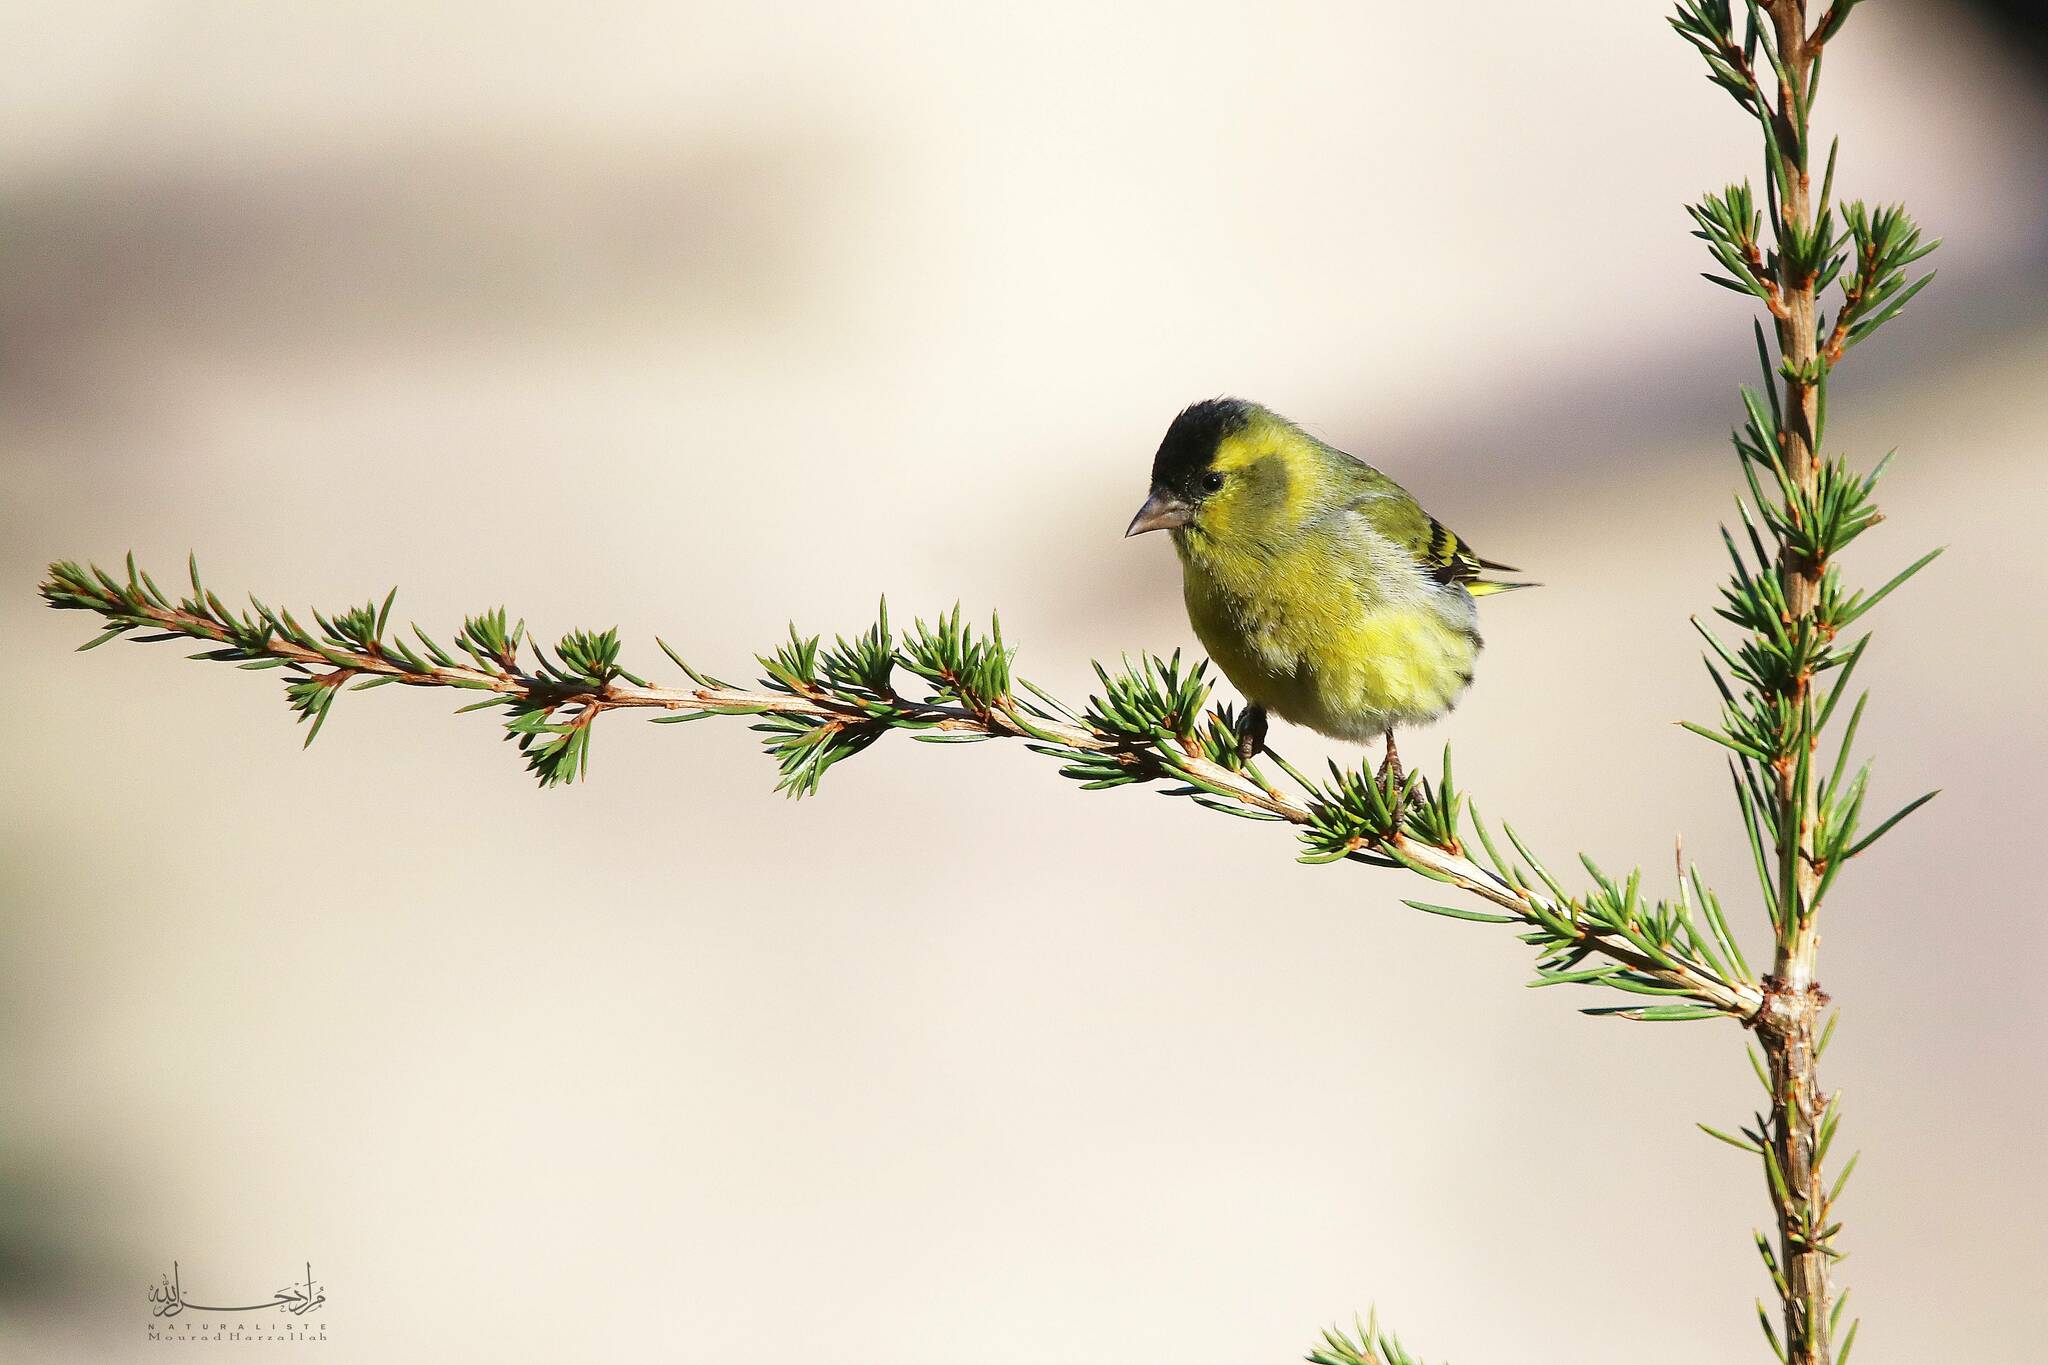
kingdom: Animalia
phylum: Chordata
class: Aves
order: Passeriformes
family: Fringillidae
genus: Spinus
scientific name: Spinus spinus
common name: Eurasian siskin
